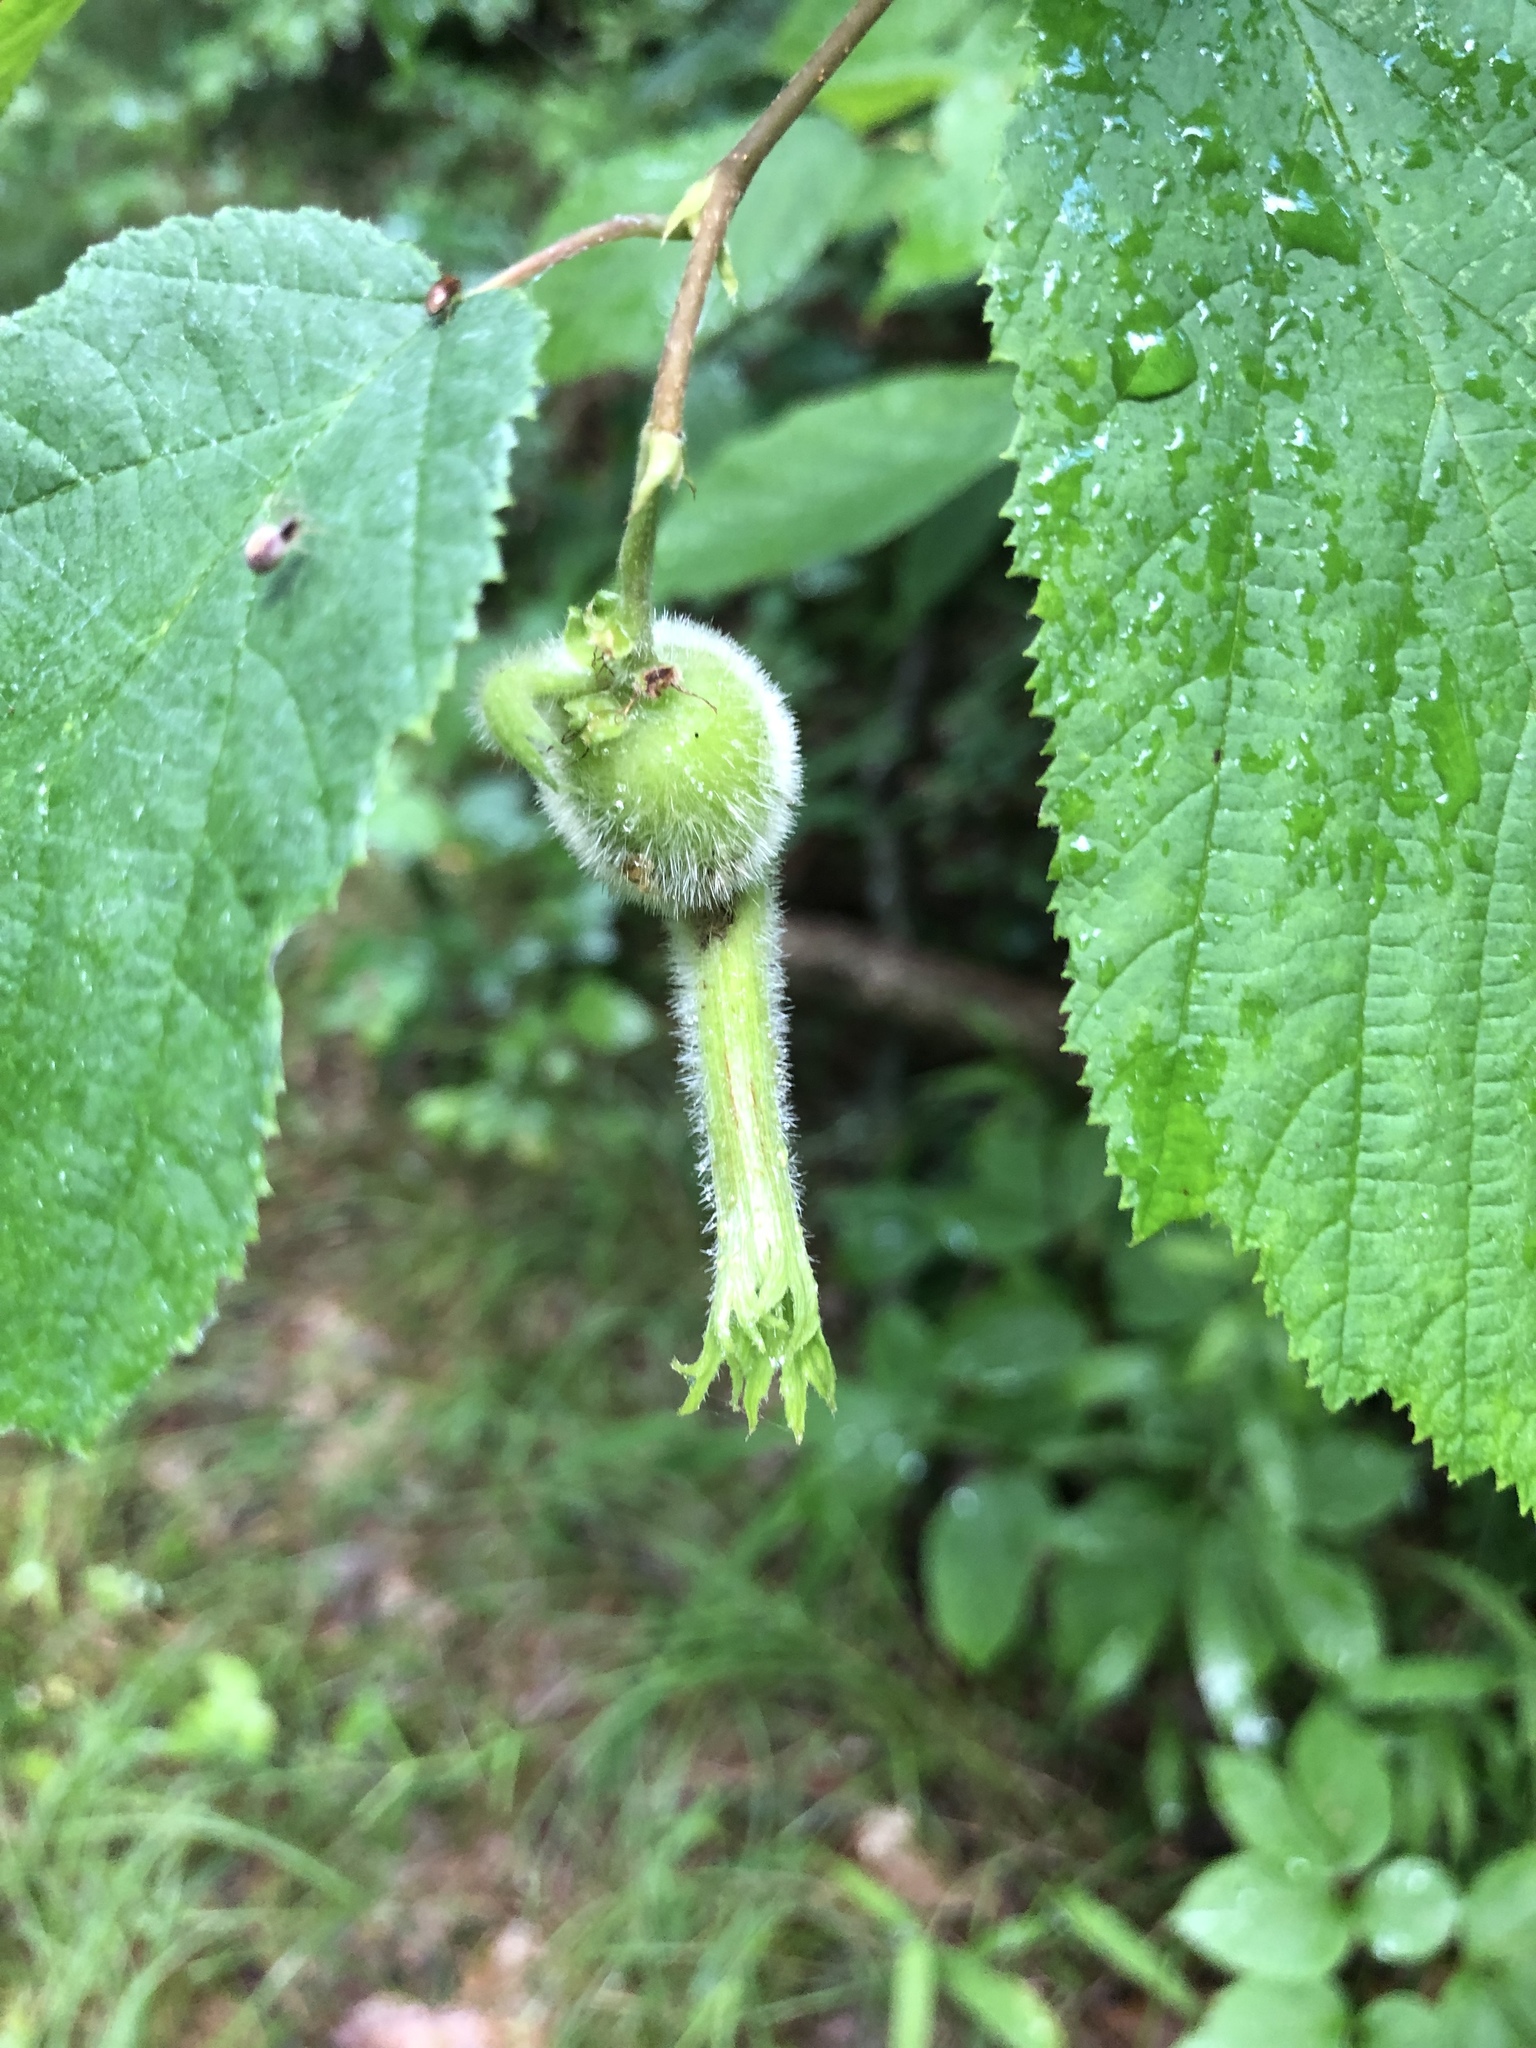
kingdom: Plantae
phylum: Tracheophyta
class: Magnoliopsida
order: Fagales
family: Betulaceae
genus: Corylus
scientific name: Corylus cornuta
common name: Beaked hazel
